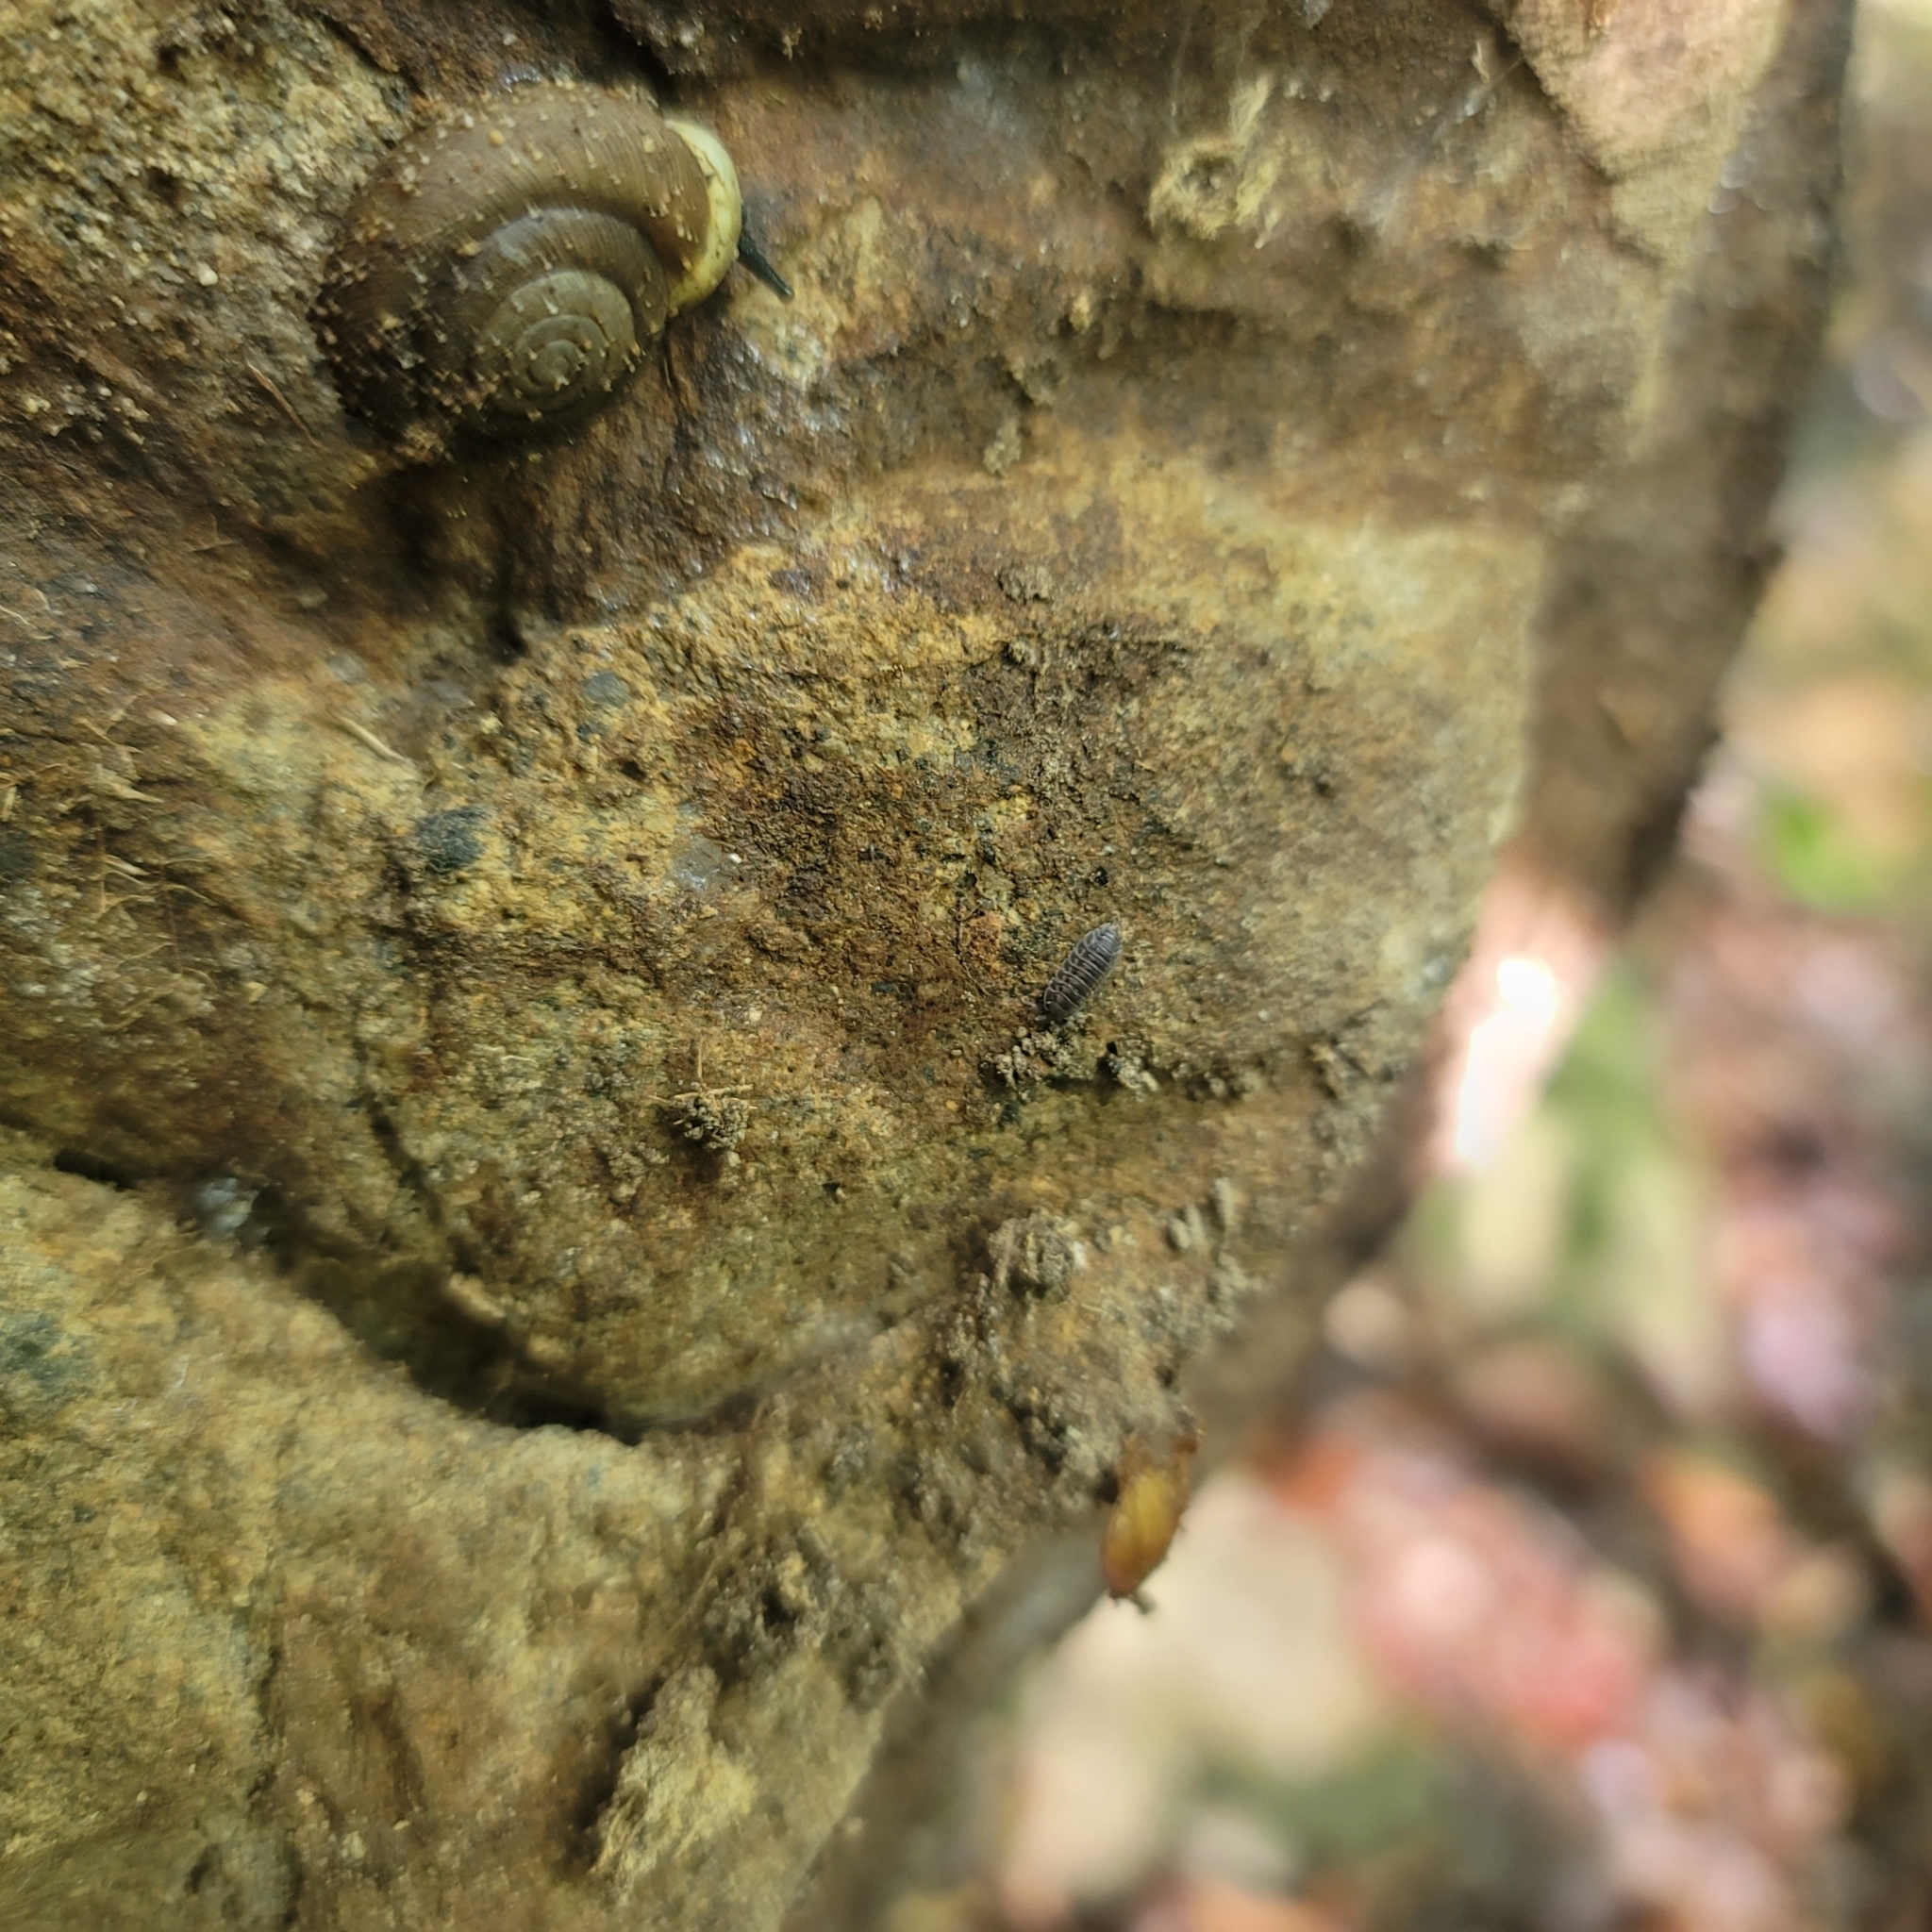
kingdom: Animalia
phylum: Arthropoda
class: Malacostraca
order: Isopoda
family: Trachelipodidae
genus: Nagurus
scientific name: Nagurus nanus
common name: Pillbug
